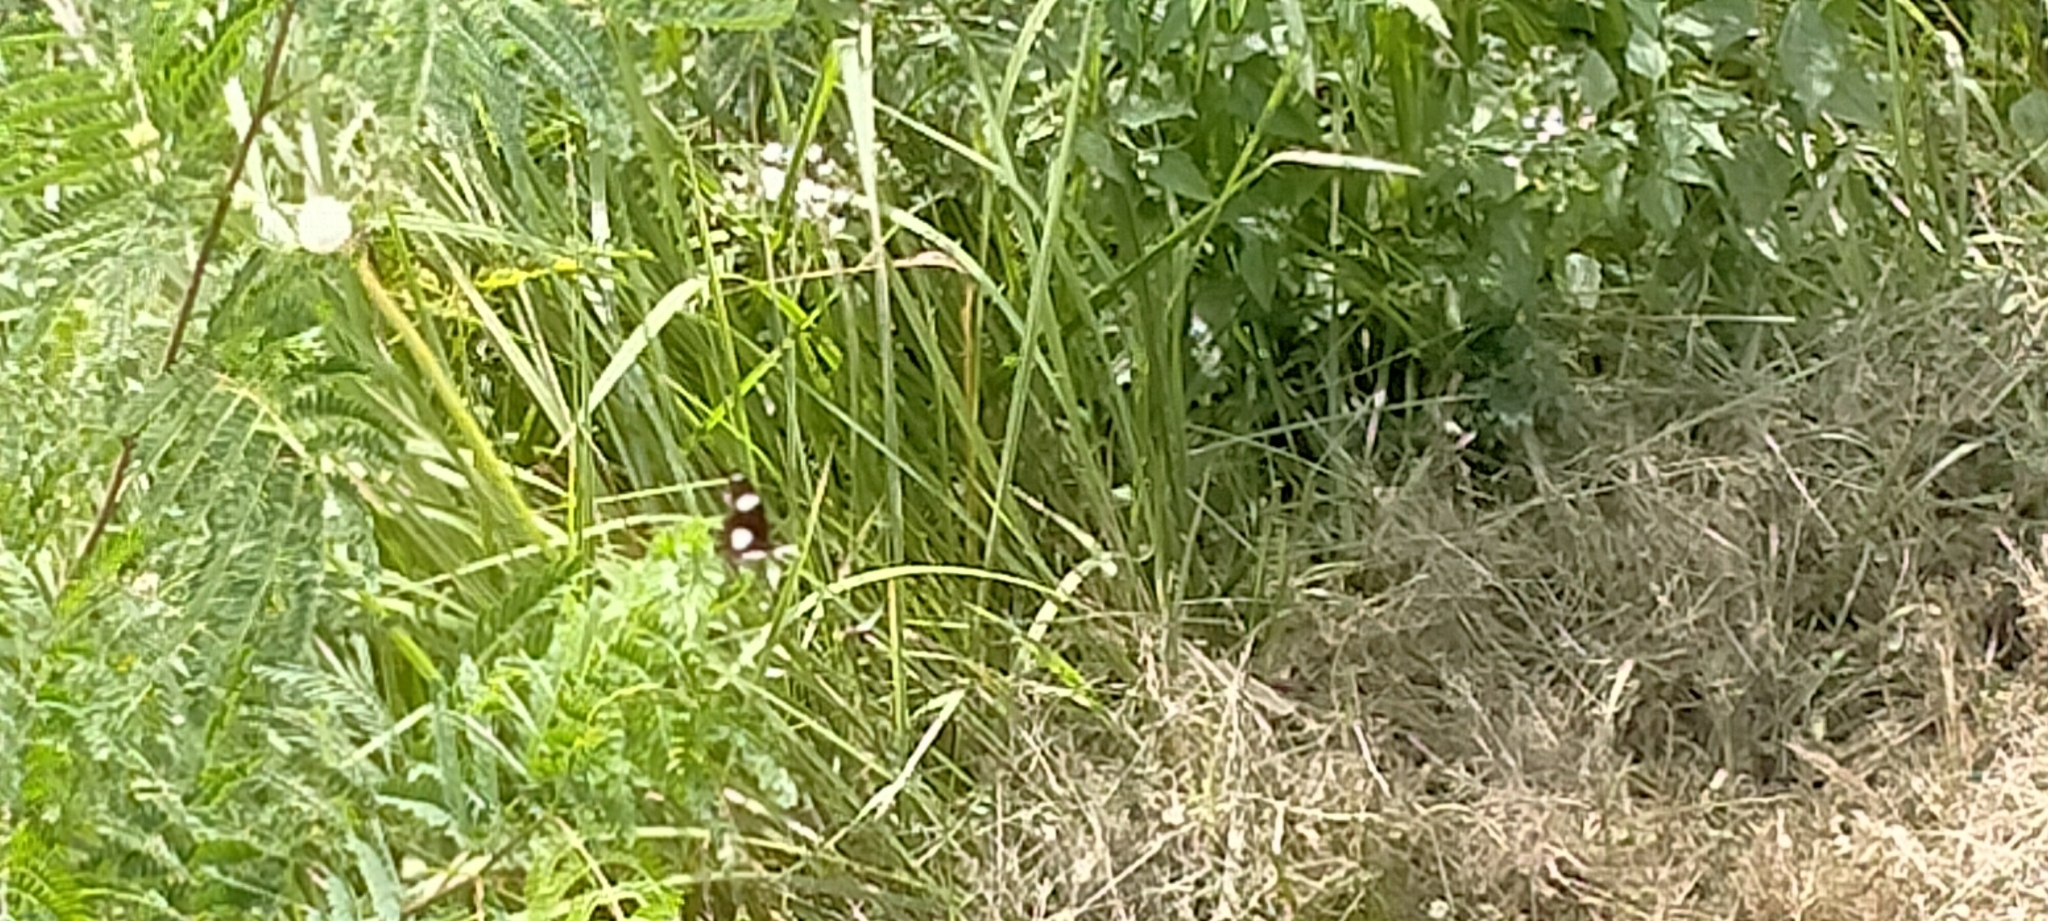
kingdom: Animalia
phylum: Arthropoda
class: Insecta
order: Lepidoptera
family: Nymphalidae
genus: Hypolimnas
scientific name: Hypolimnas misippus
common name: False plain tiger
